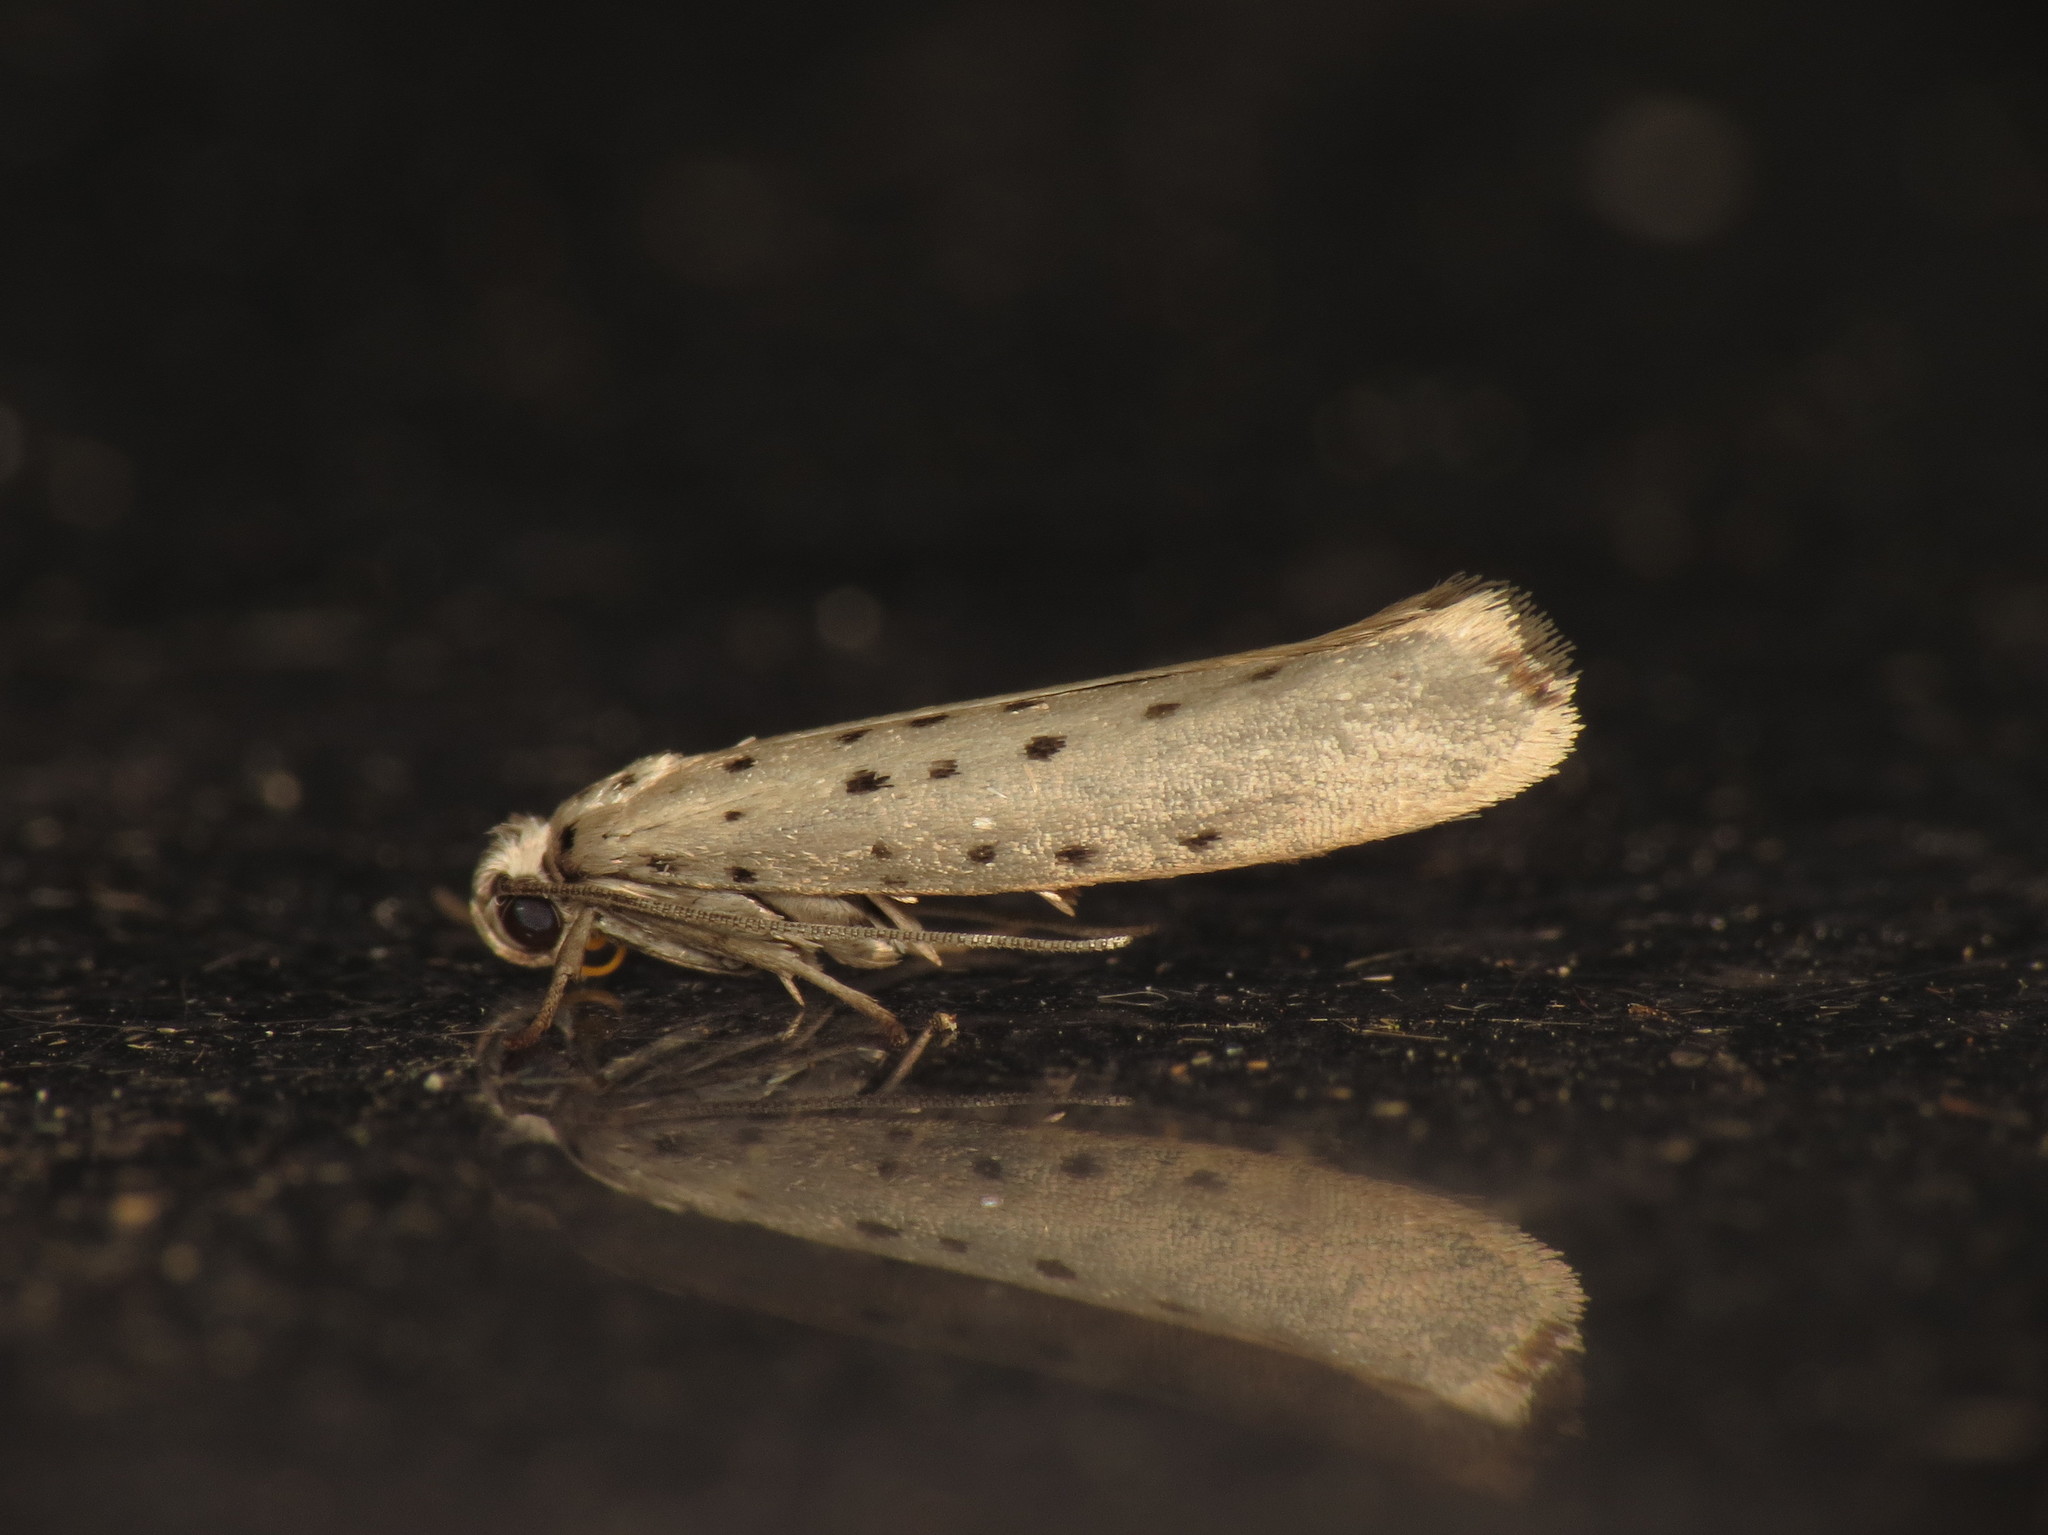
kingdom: Animalia
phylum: Arthropoda
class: Insecta
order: Lepidoptera
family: Yponomeutidae
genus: Yponomeuta
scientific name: Yponomeuta vigintipunctata
